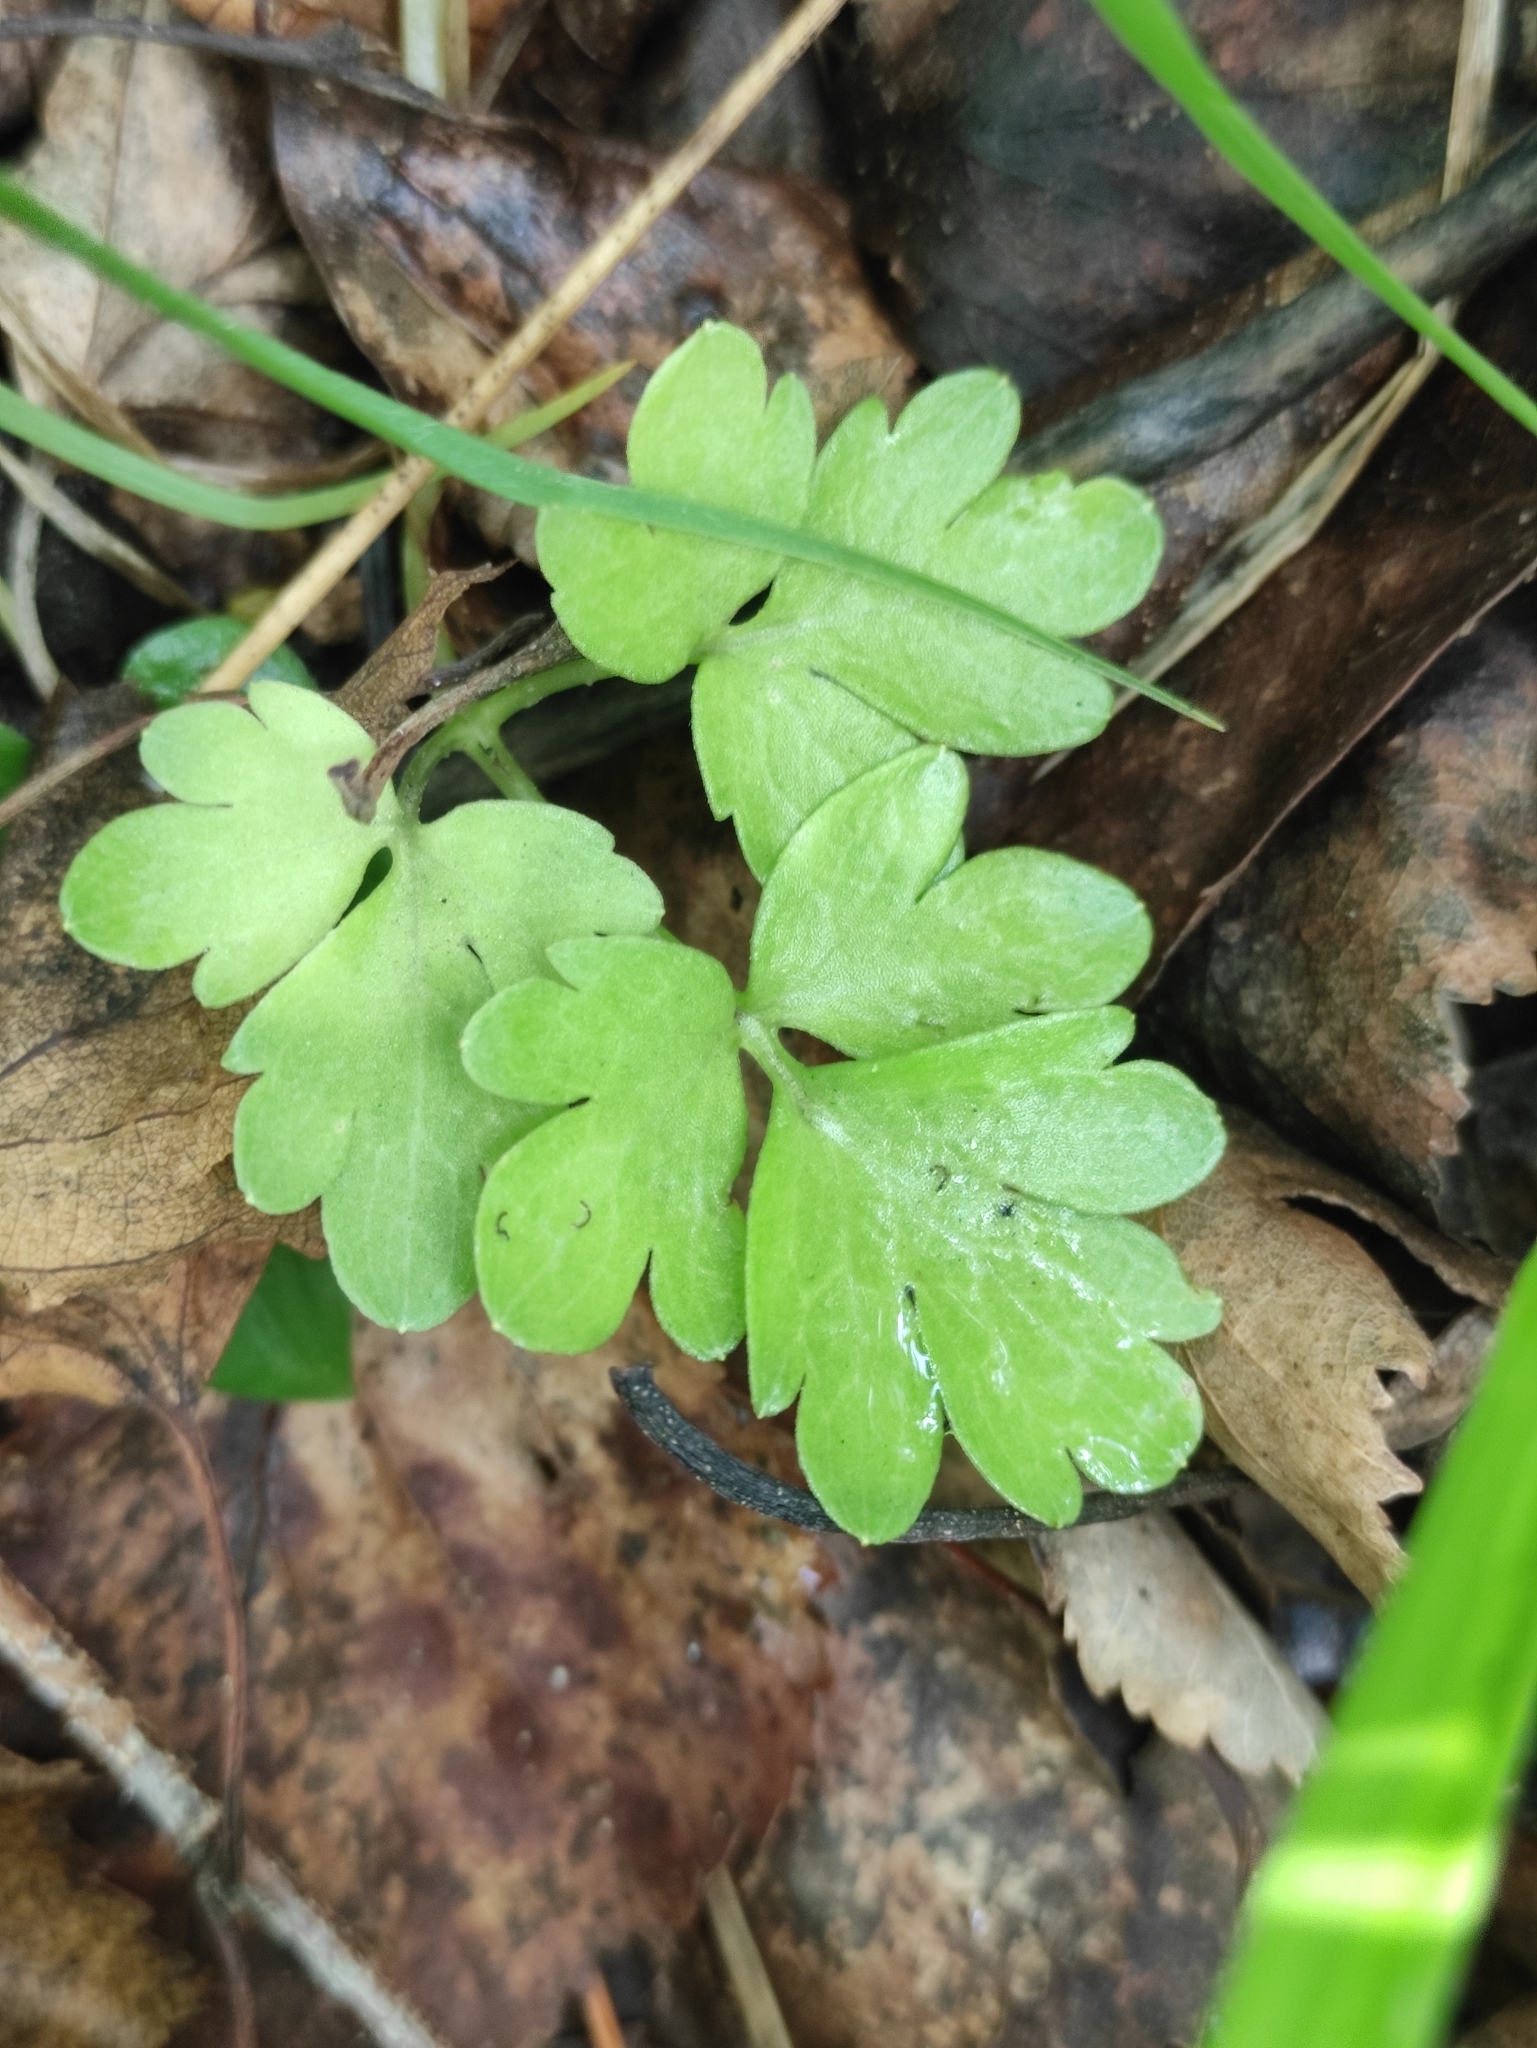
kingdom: Plantae
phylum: Tracheophyta
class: Magnoliopsida
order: Dipsacales
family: Viburnaceae
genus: Adoxa
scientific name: Adoxa moschatellina
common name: Moschatel
